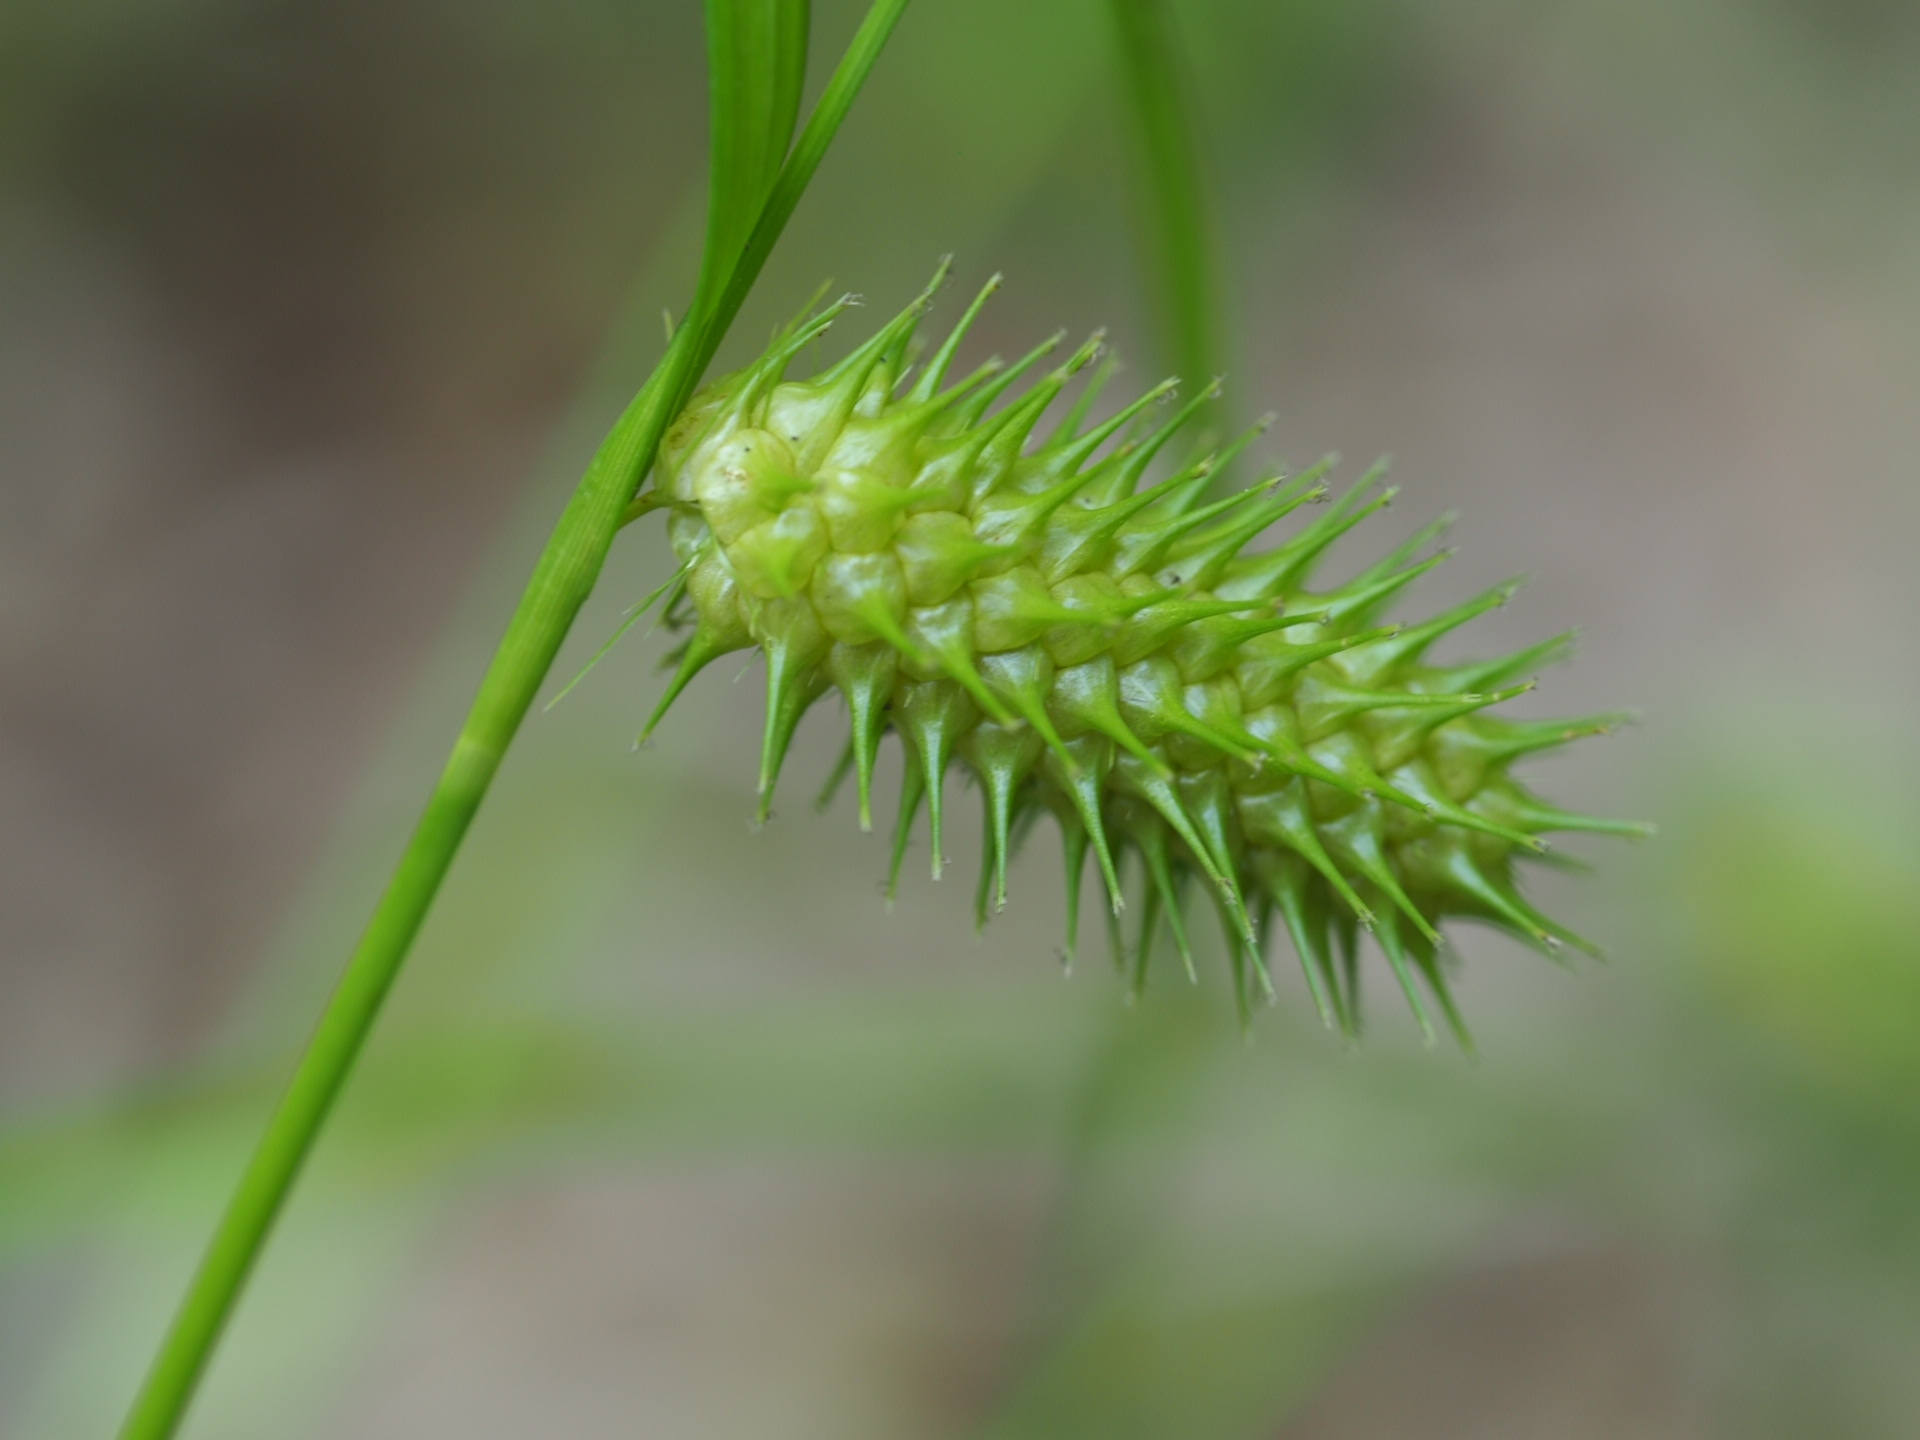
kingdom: Plantae
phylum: Tracheophyta
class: Liliopsida
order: Poales
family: Cyperaceae
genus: Carex
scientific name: Carex lurida
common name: Sallow sedge
